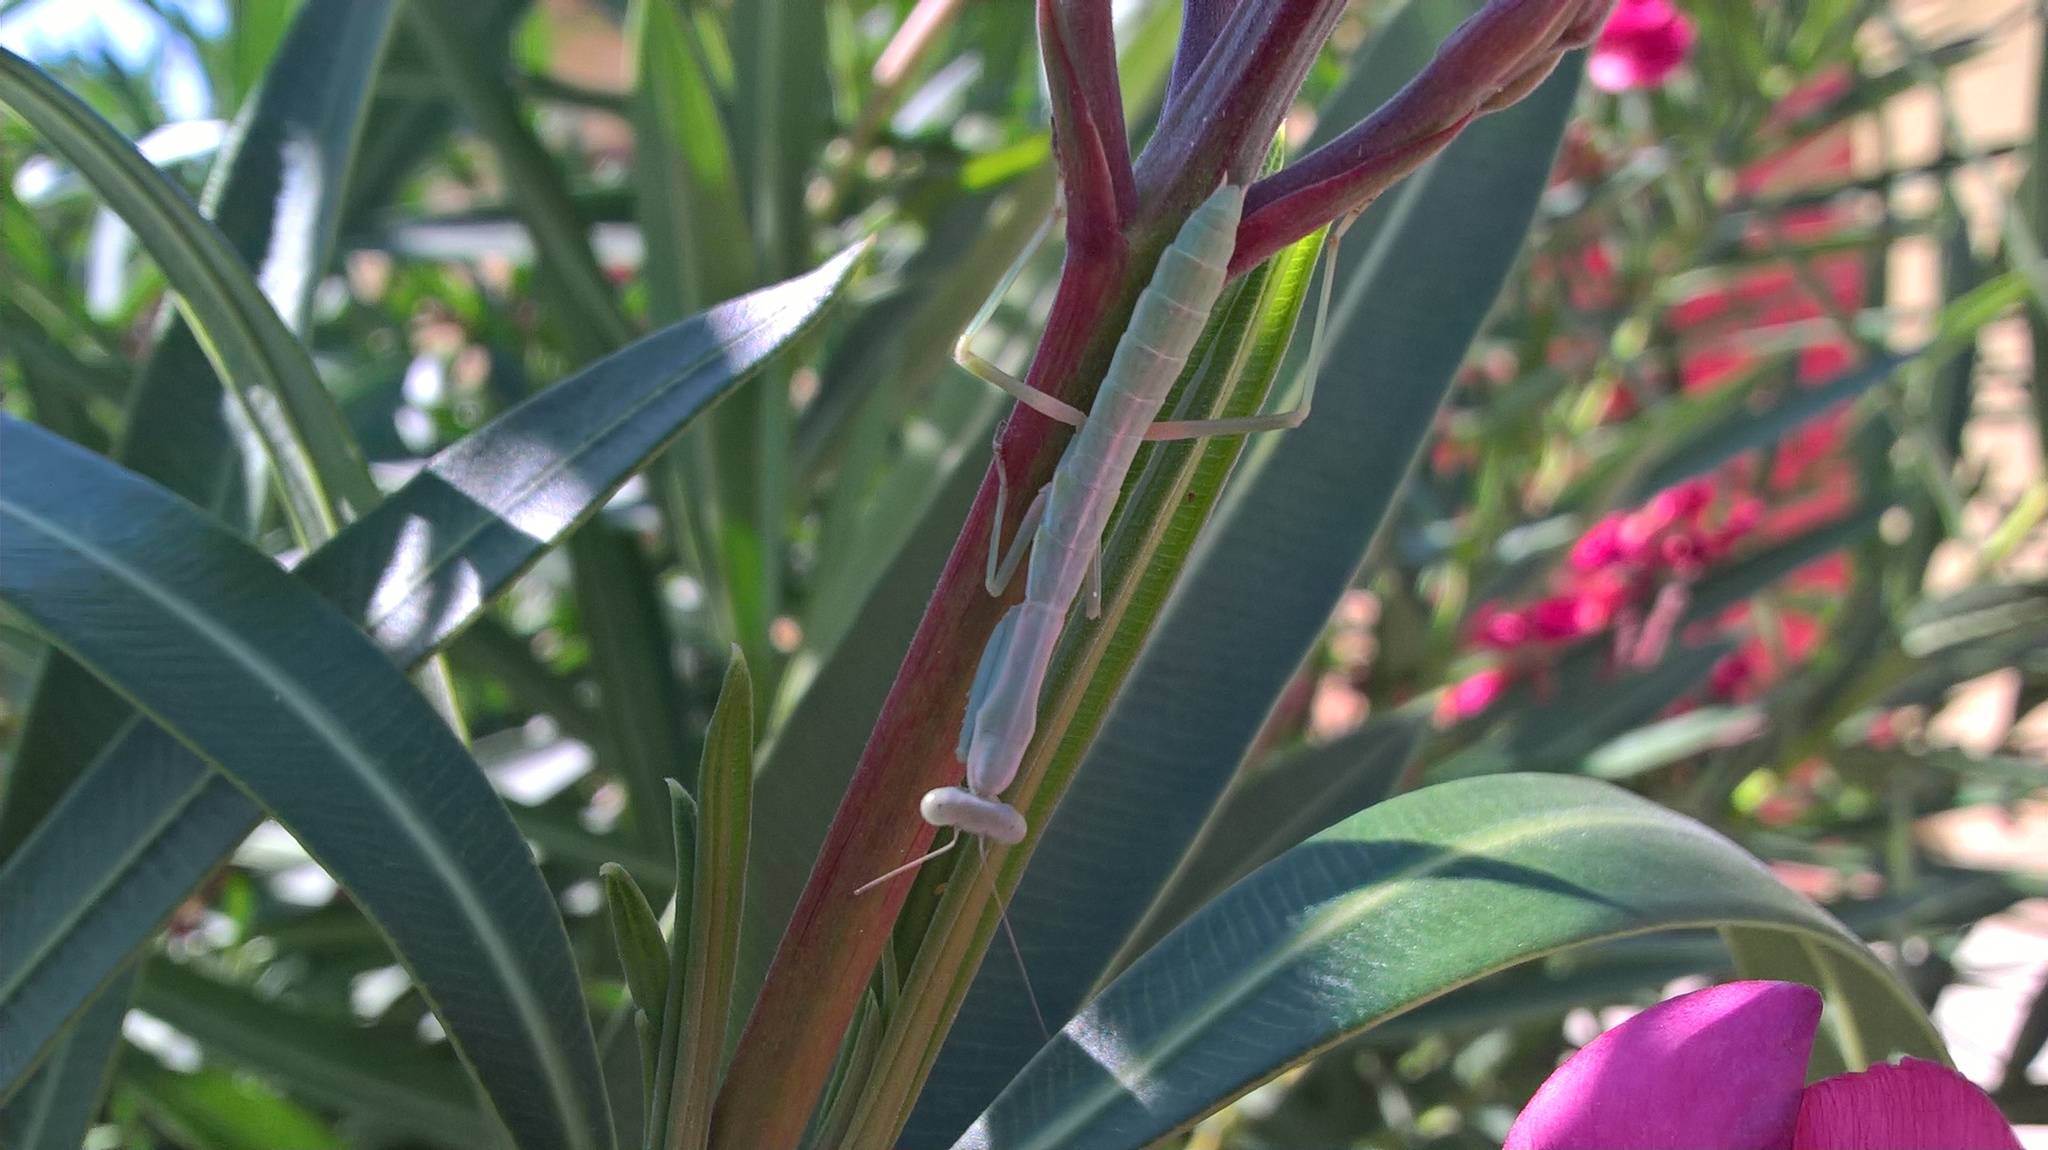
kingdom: Animalia
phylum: Arthropoda
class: Insecta
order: Mantodea
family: Eremiaphilidae
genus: Iris
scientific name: Iris oratoria
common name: Mediterranean mantis
